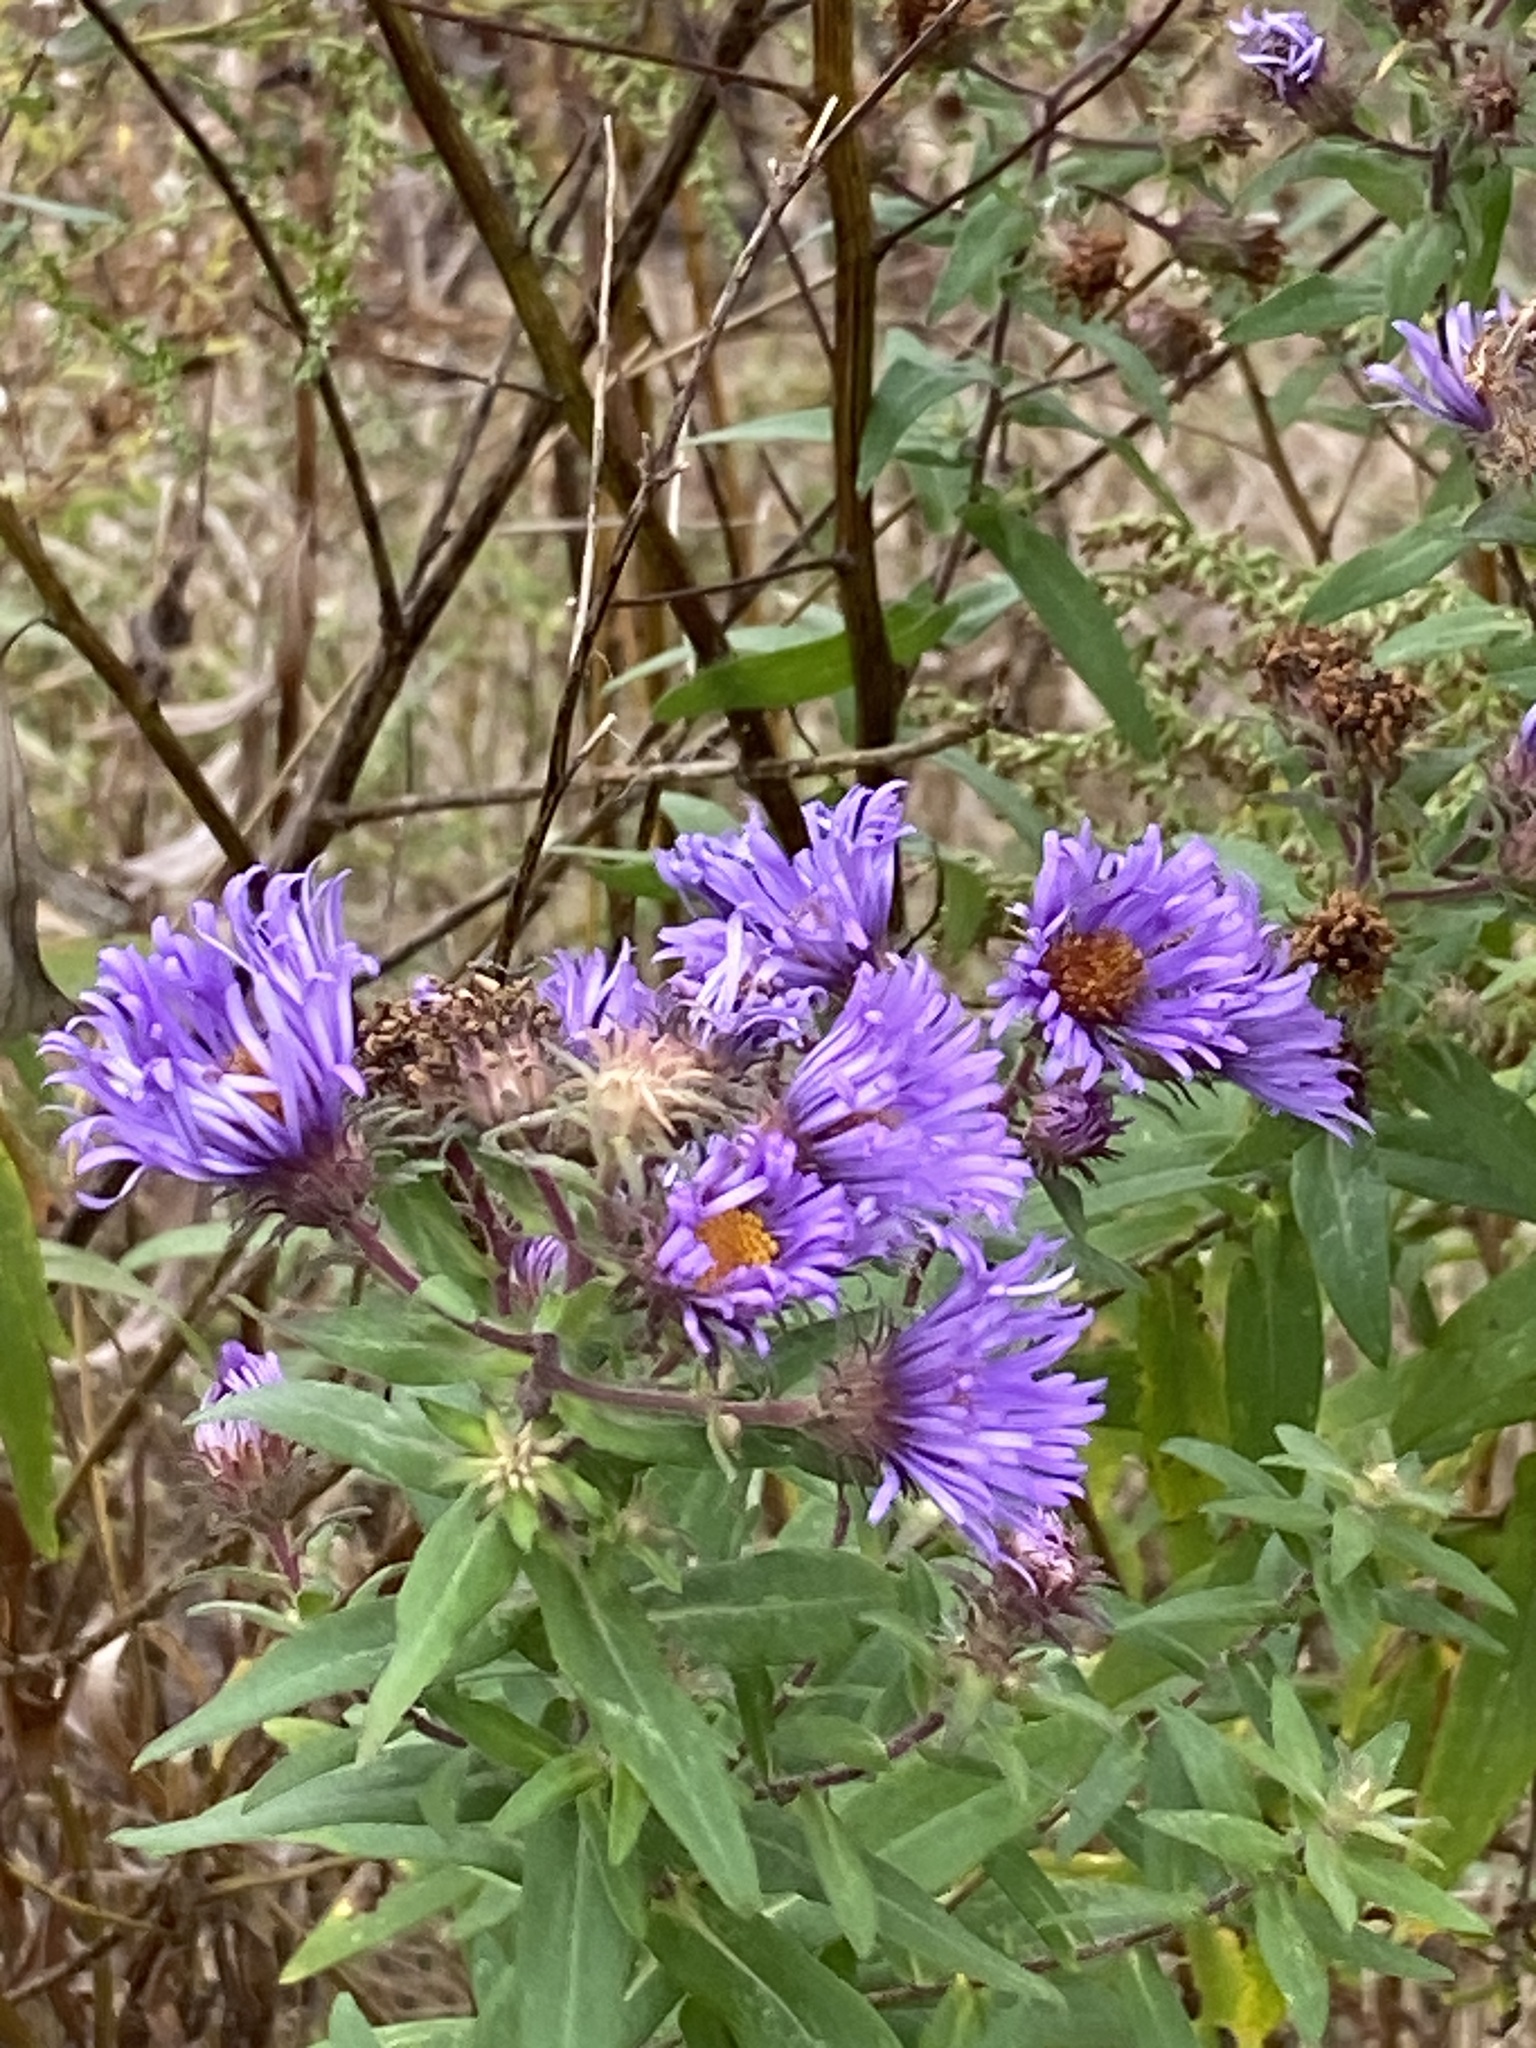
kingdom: Plantae
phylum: Tracheophyta
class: Magnoliopsida
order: Asterales
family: Asteraceae
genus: Symphyotrichum
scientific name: Symphyotrichum novae-angliae
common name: Michaelmas daisy
